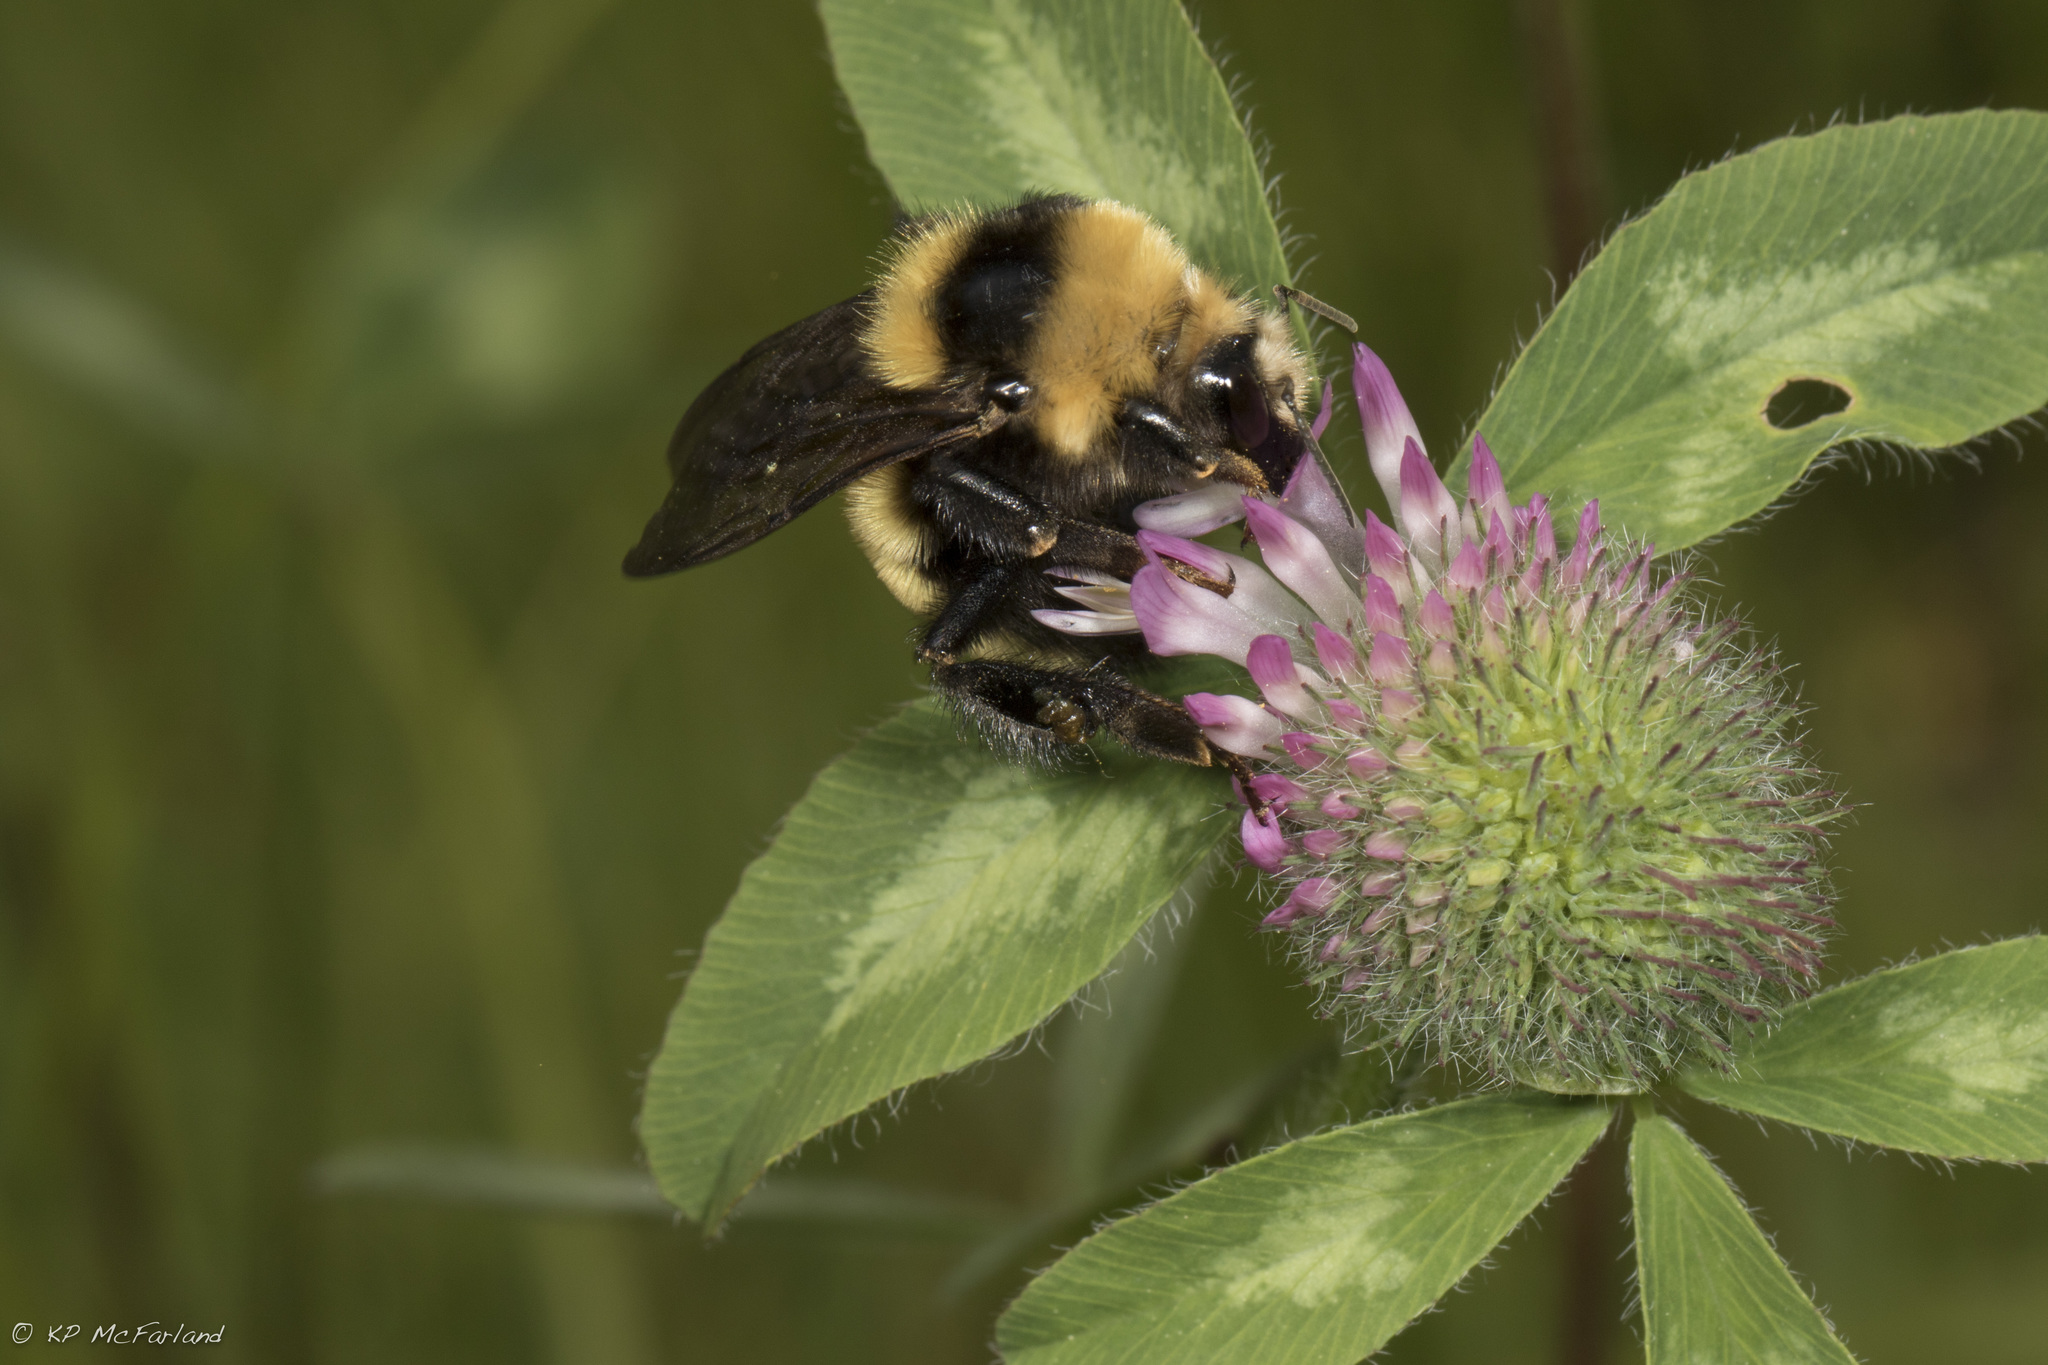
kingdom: Animalia
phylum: Arthropoda
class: Insecta
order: Hymenoptera
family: Apidae
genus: Bombus
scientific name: Bombus borealis
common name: Northern amber bumble bee
